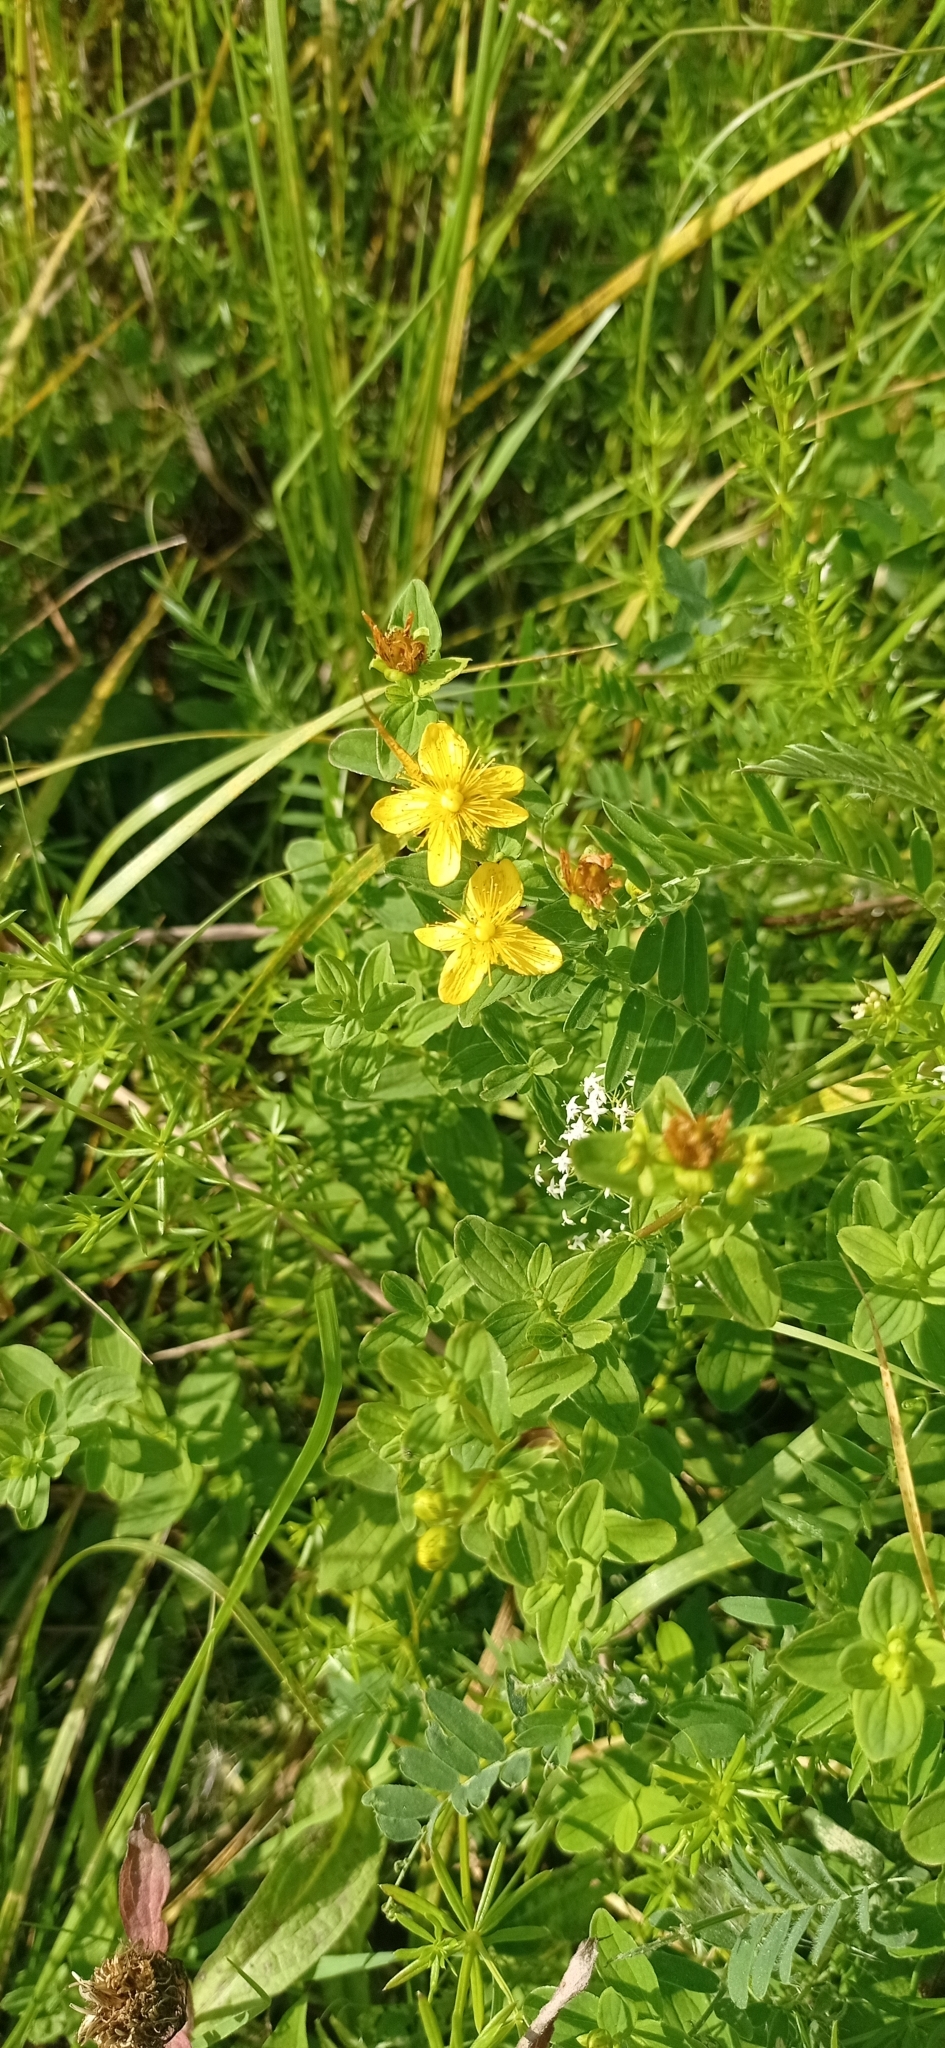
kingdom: Plantae
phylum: Tracheophyta
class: Magnoliopsida
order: Malpighiales
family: Hypericaceae
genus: Hypericum
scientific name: Hypericum maculatum
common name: Imperforate st. john's-wort
